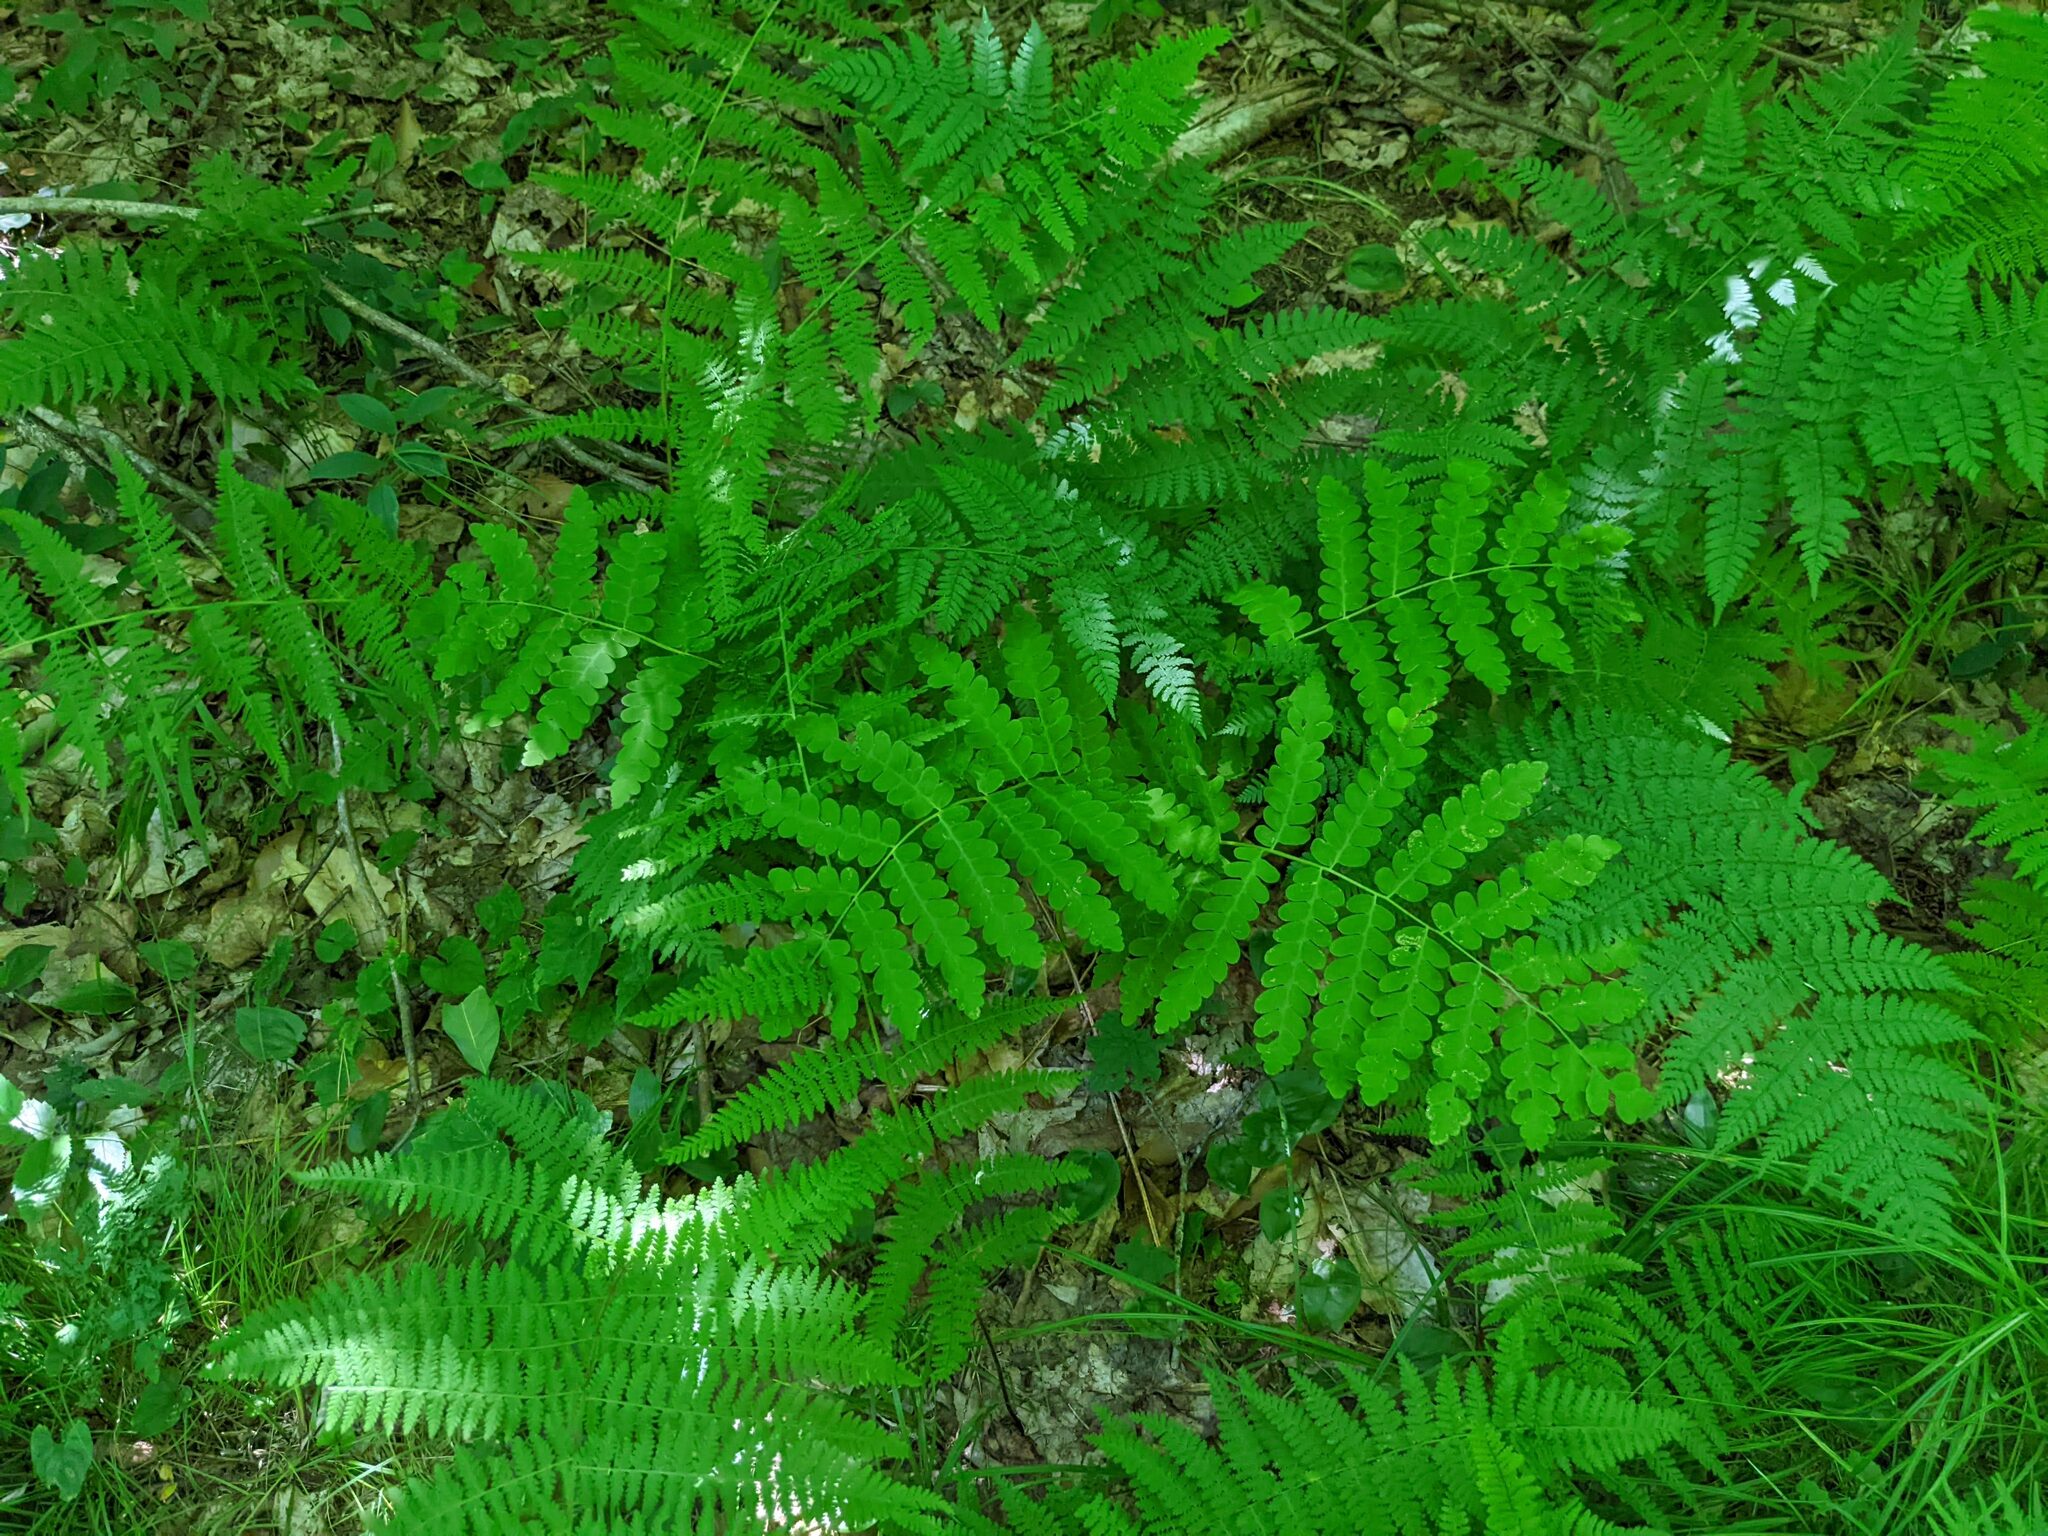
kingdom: Plantae
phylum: Tracheophyta
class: Polypodiopsida
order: Osmundales
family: Osmundaceae
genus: Claytosmunda
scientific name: Claytosmunda claytoniana
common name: Clayton's fern
